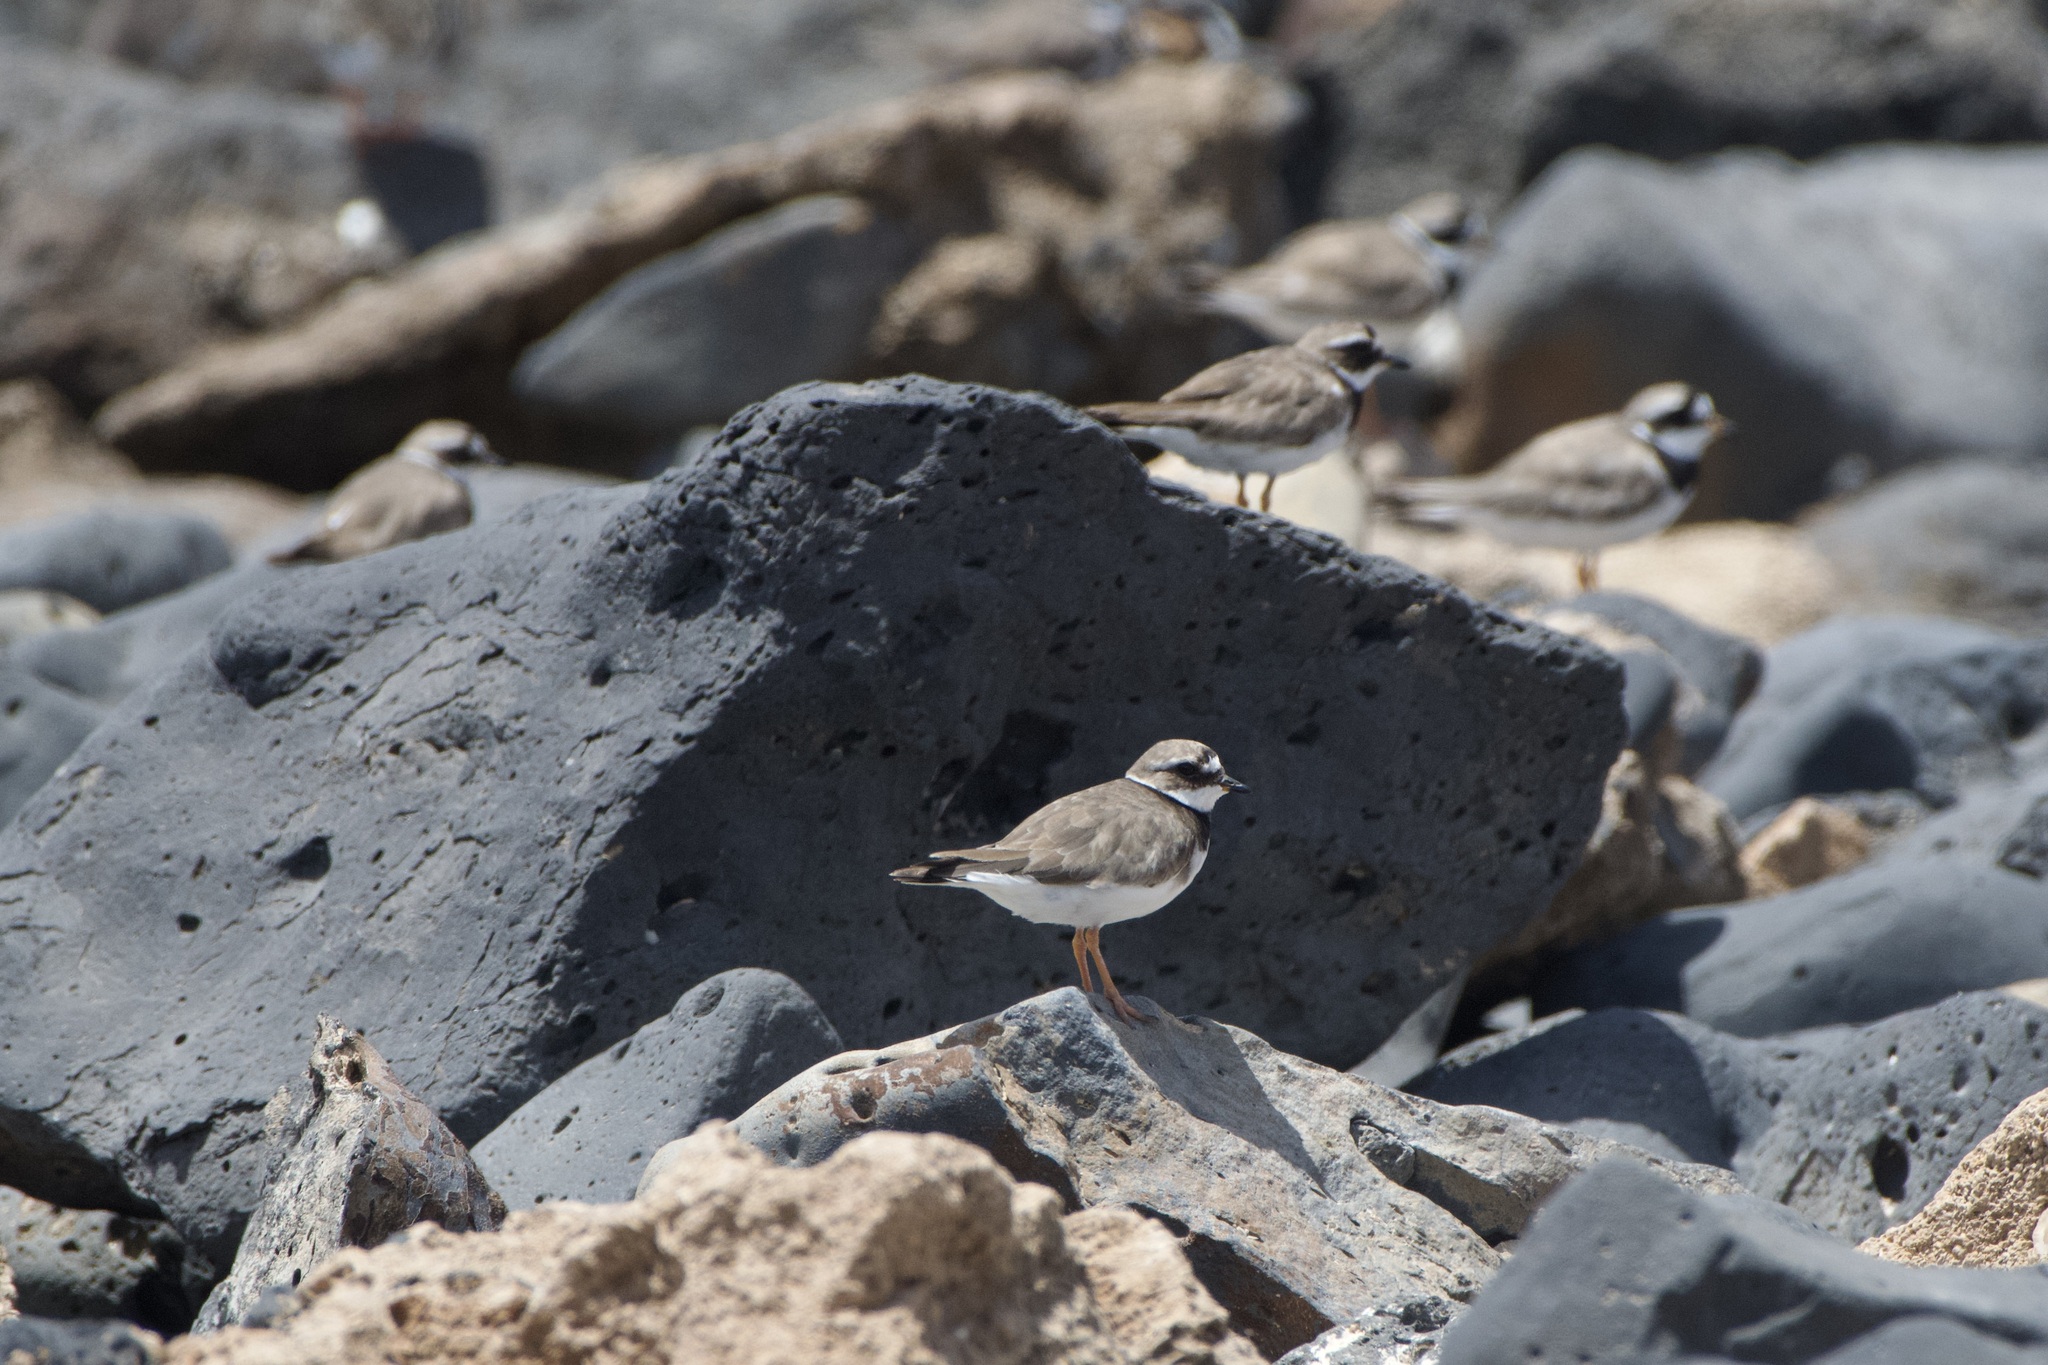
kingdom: Animalia
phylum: Chordata
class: Aves
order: Charadriiformes
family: Charadriidae
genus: Charadrius
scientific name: Charadrius hiaticula
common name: Common ringed plover
